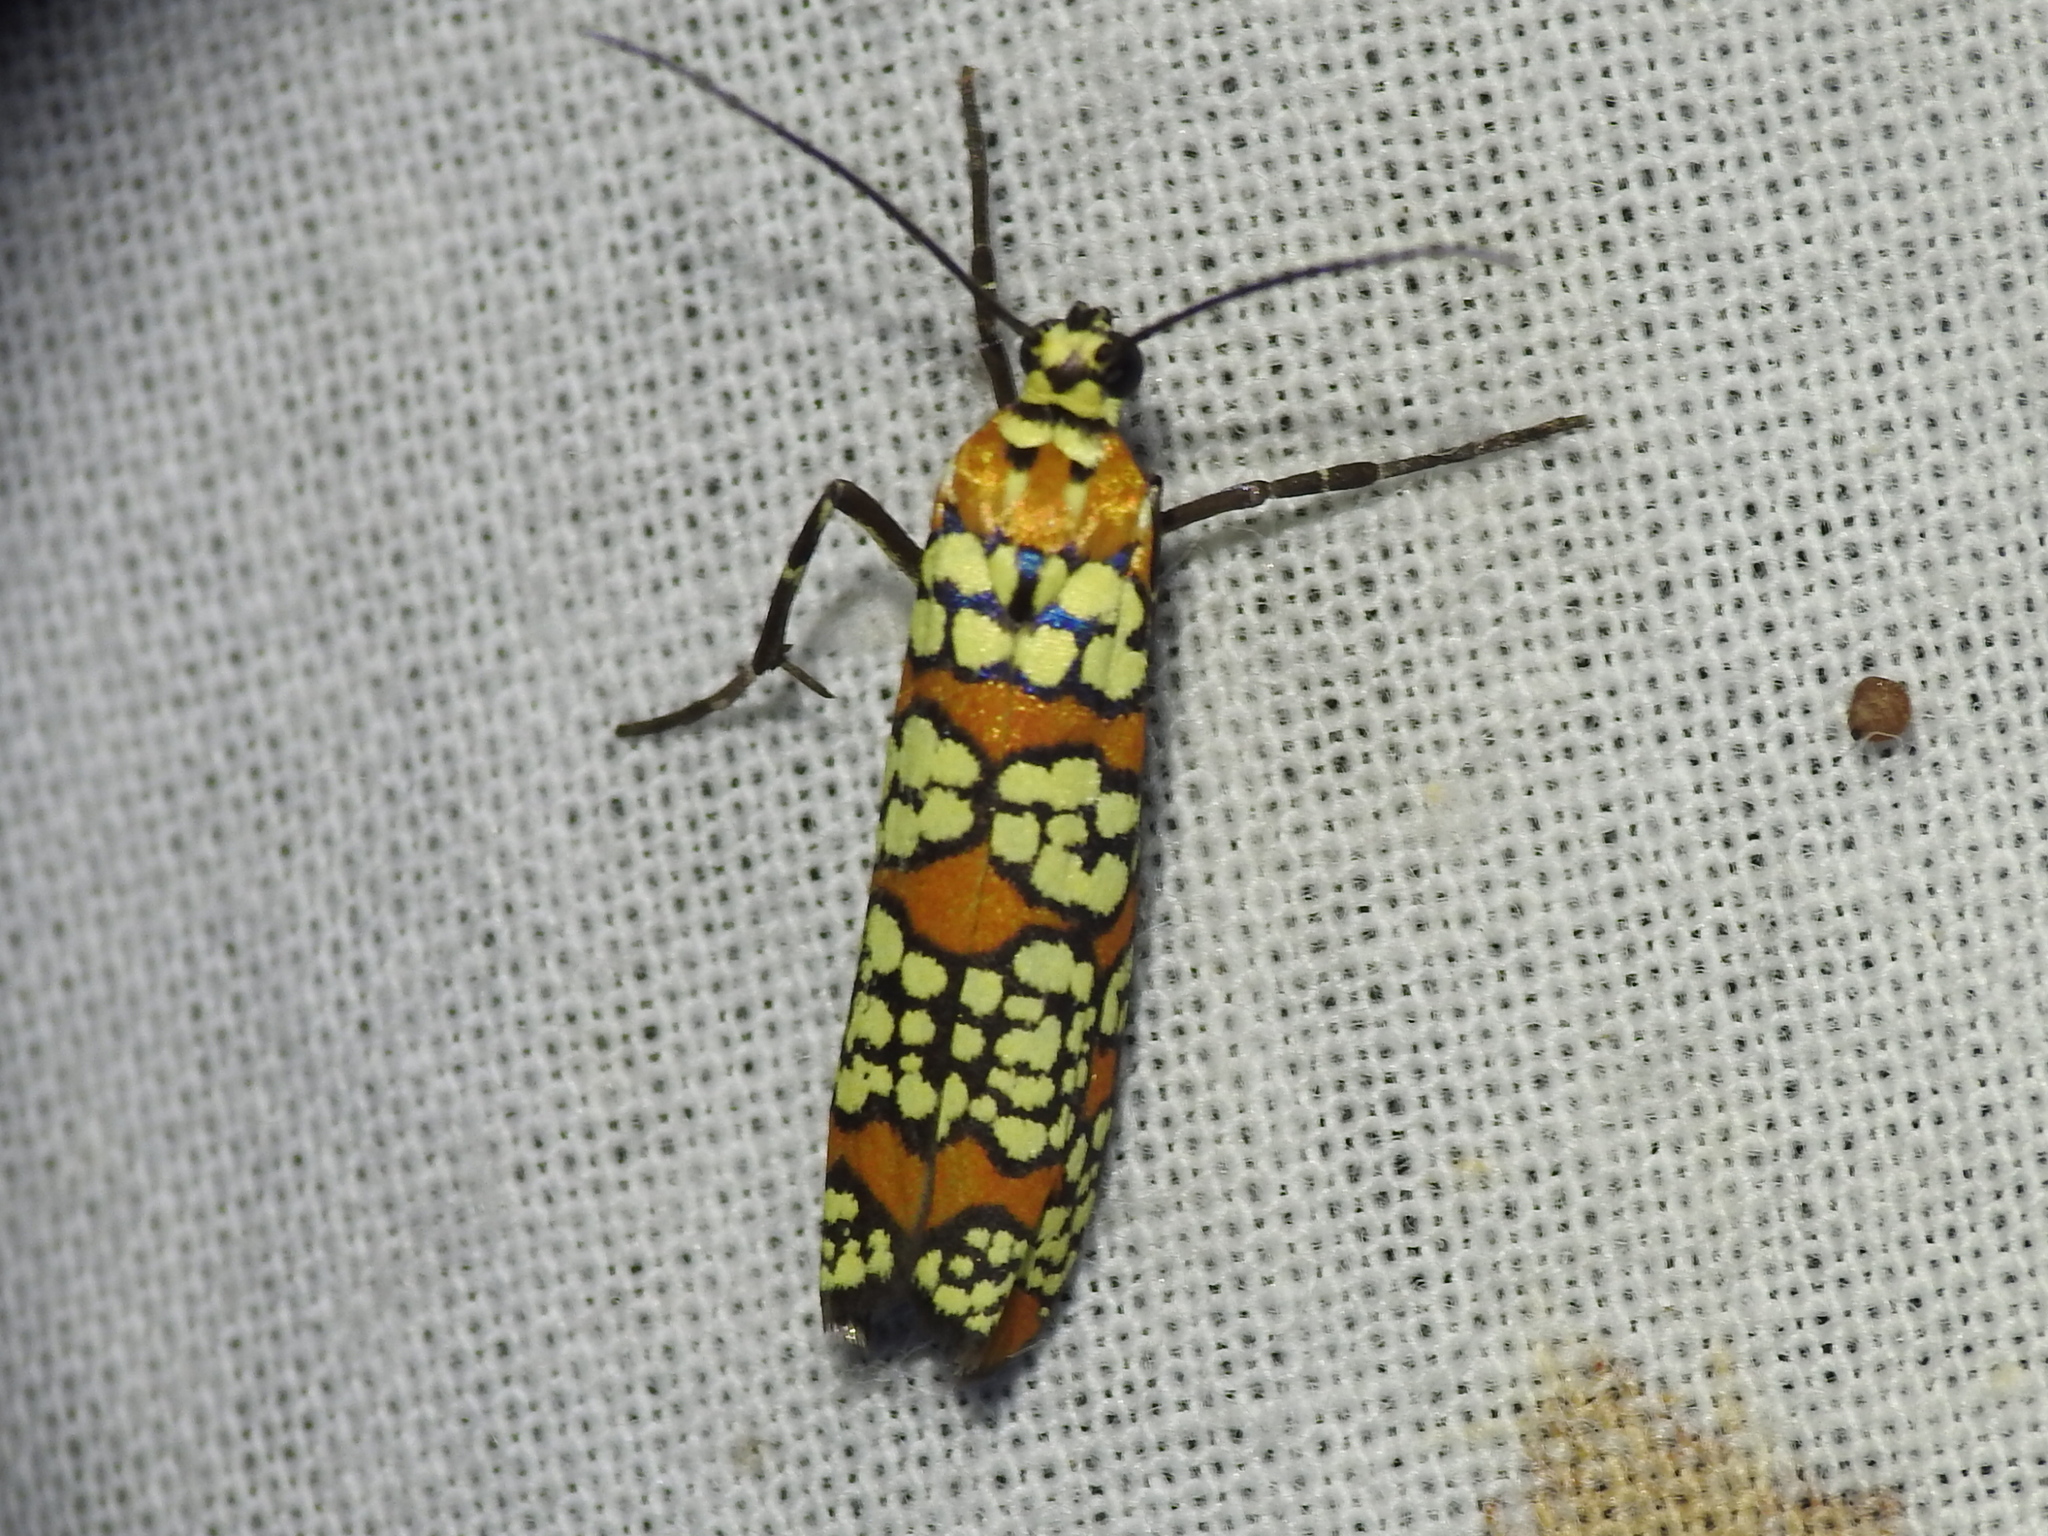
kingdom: Animalia
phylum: Arthropoda
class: Insecta
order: Lepidoptera
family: Attevidae
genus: Atteva
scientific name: Atteva punctella
